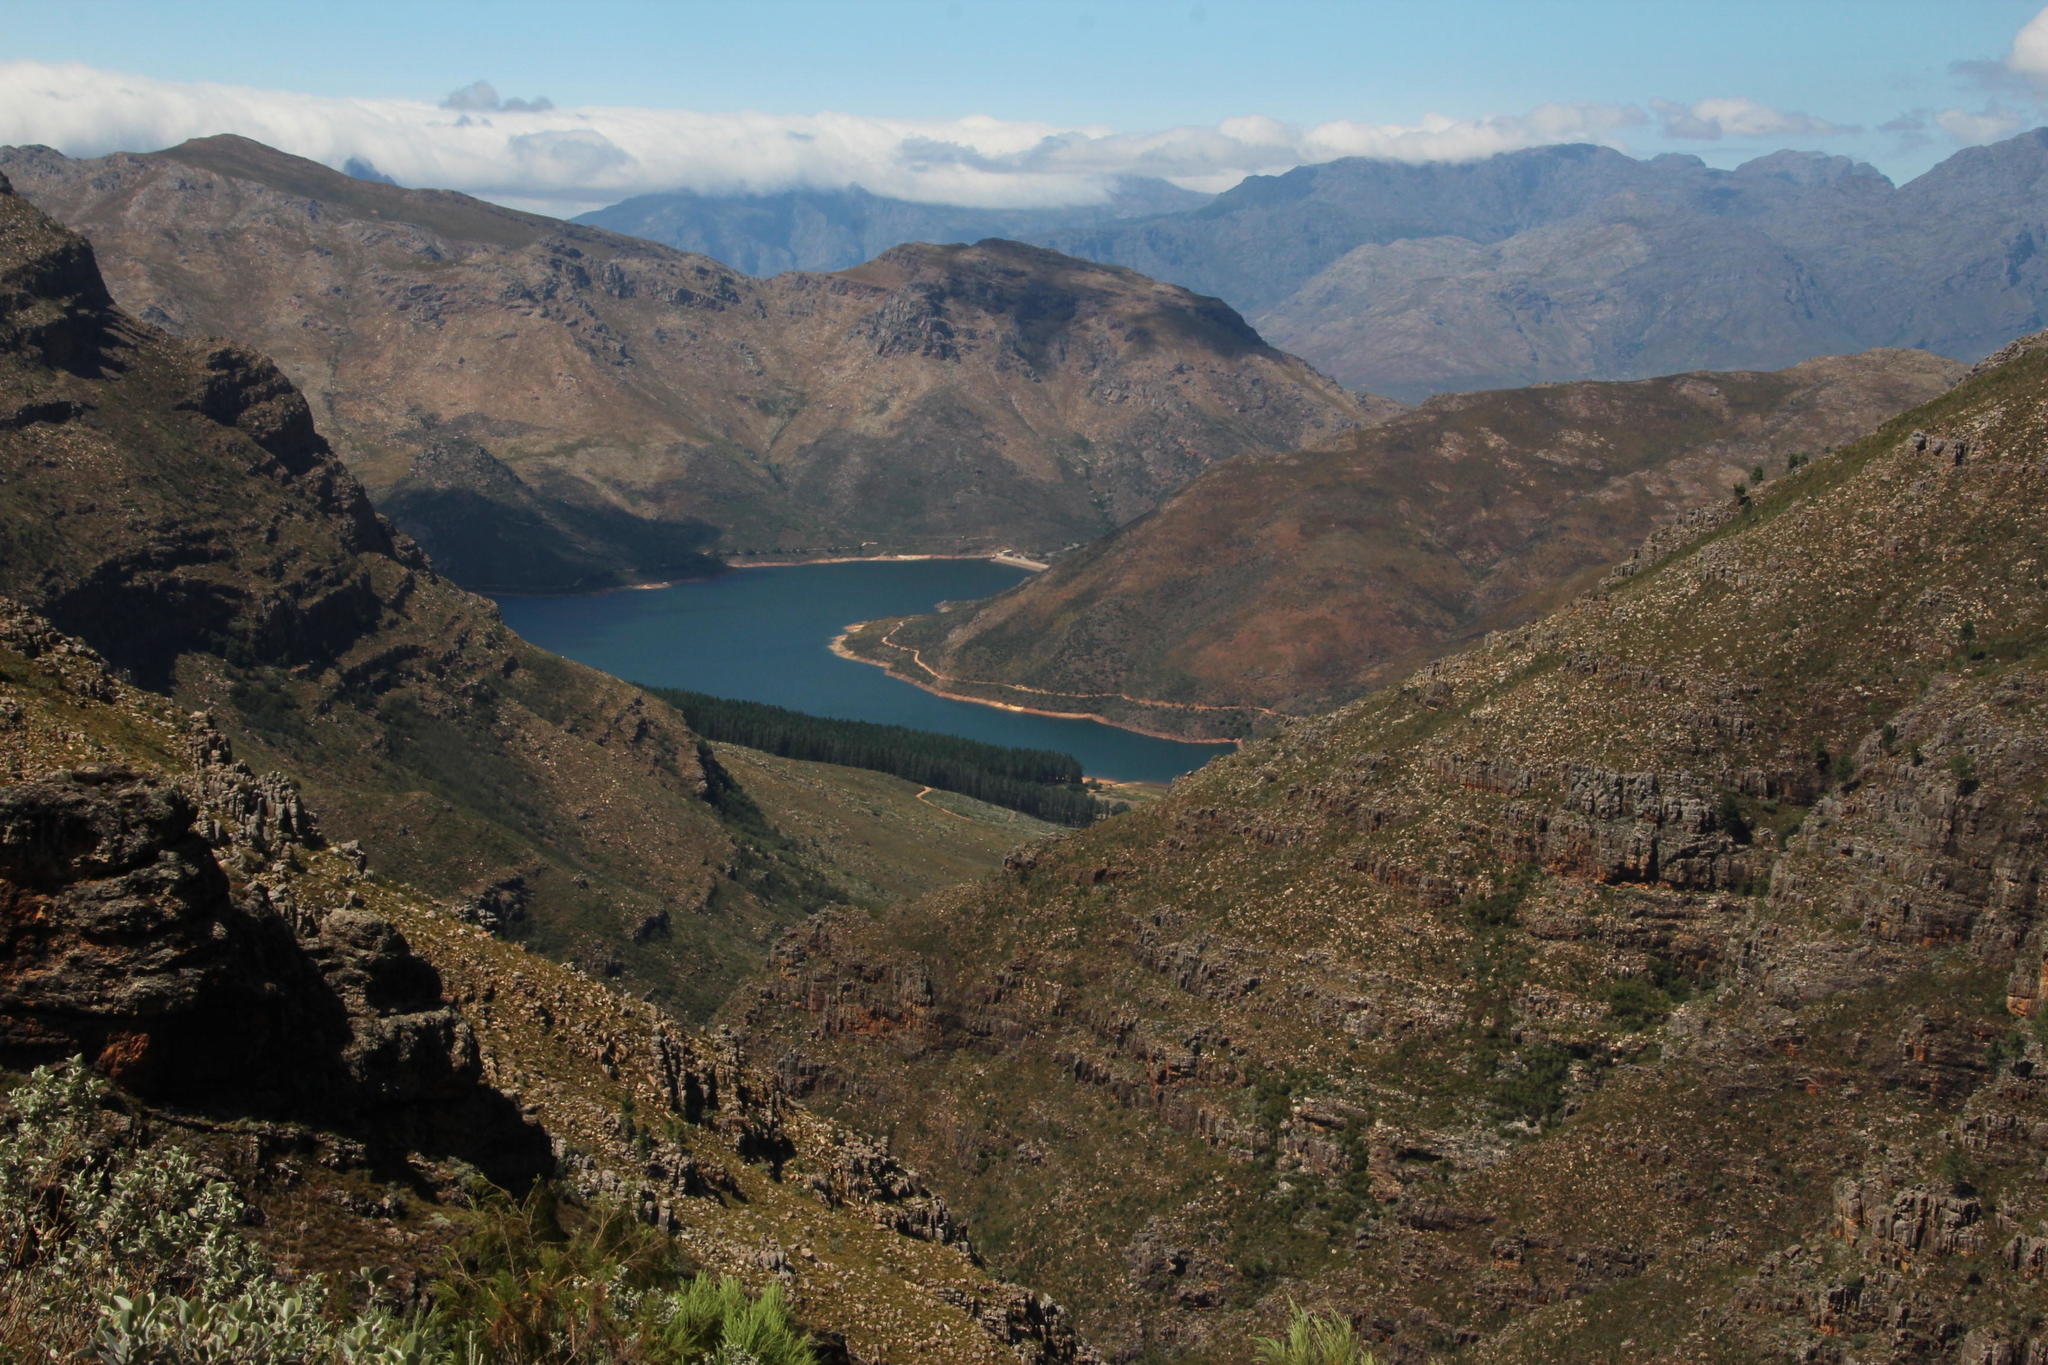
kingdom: Plantae
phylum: Tracheophyta
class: Pinopsida
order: Pinales
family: Pinaceae
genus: Pinus
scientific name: Pinus radiata
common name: Monterey pine
